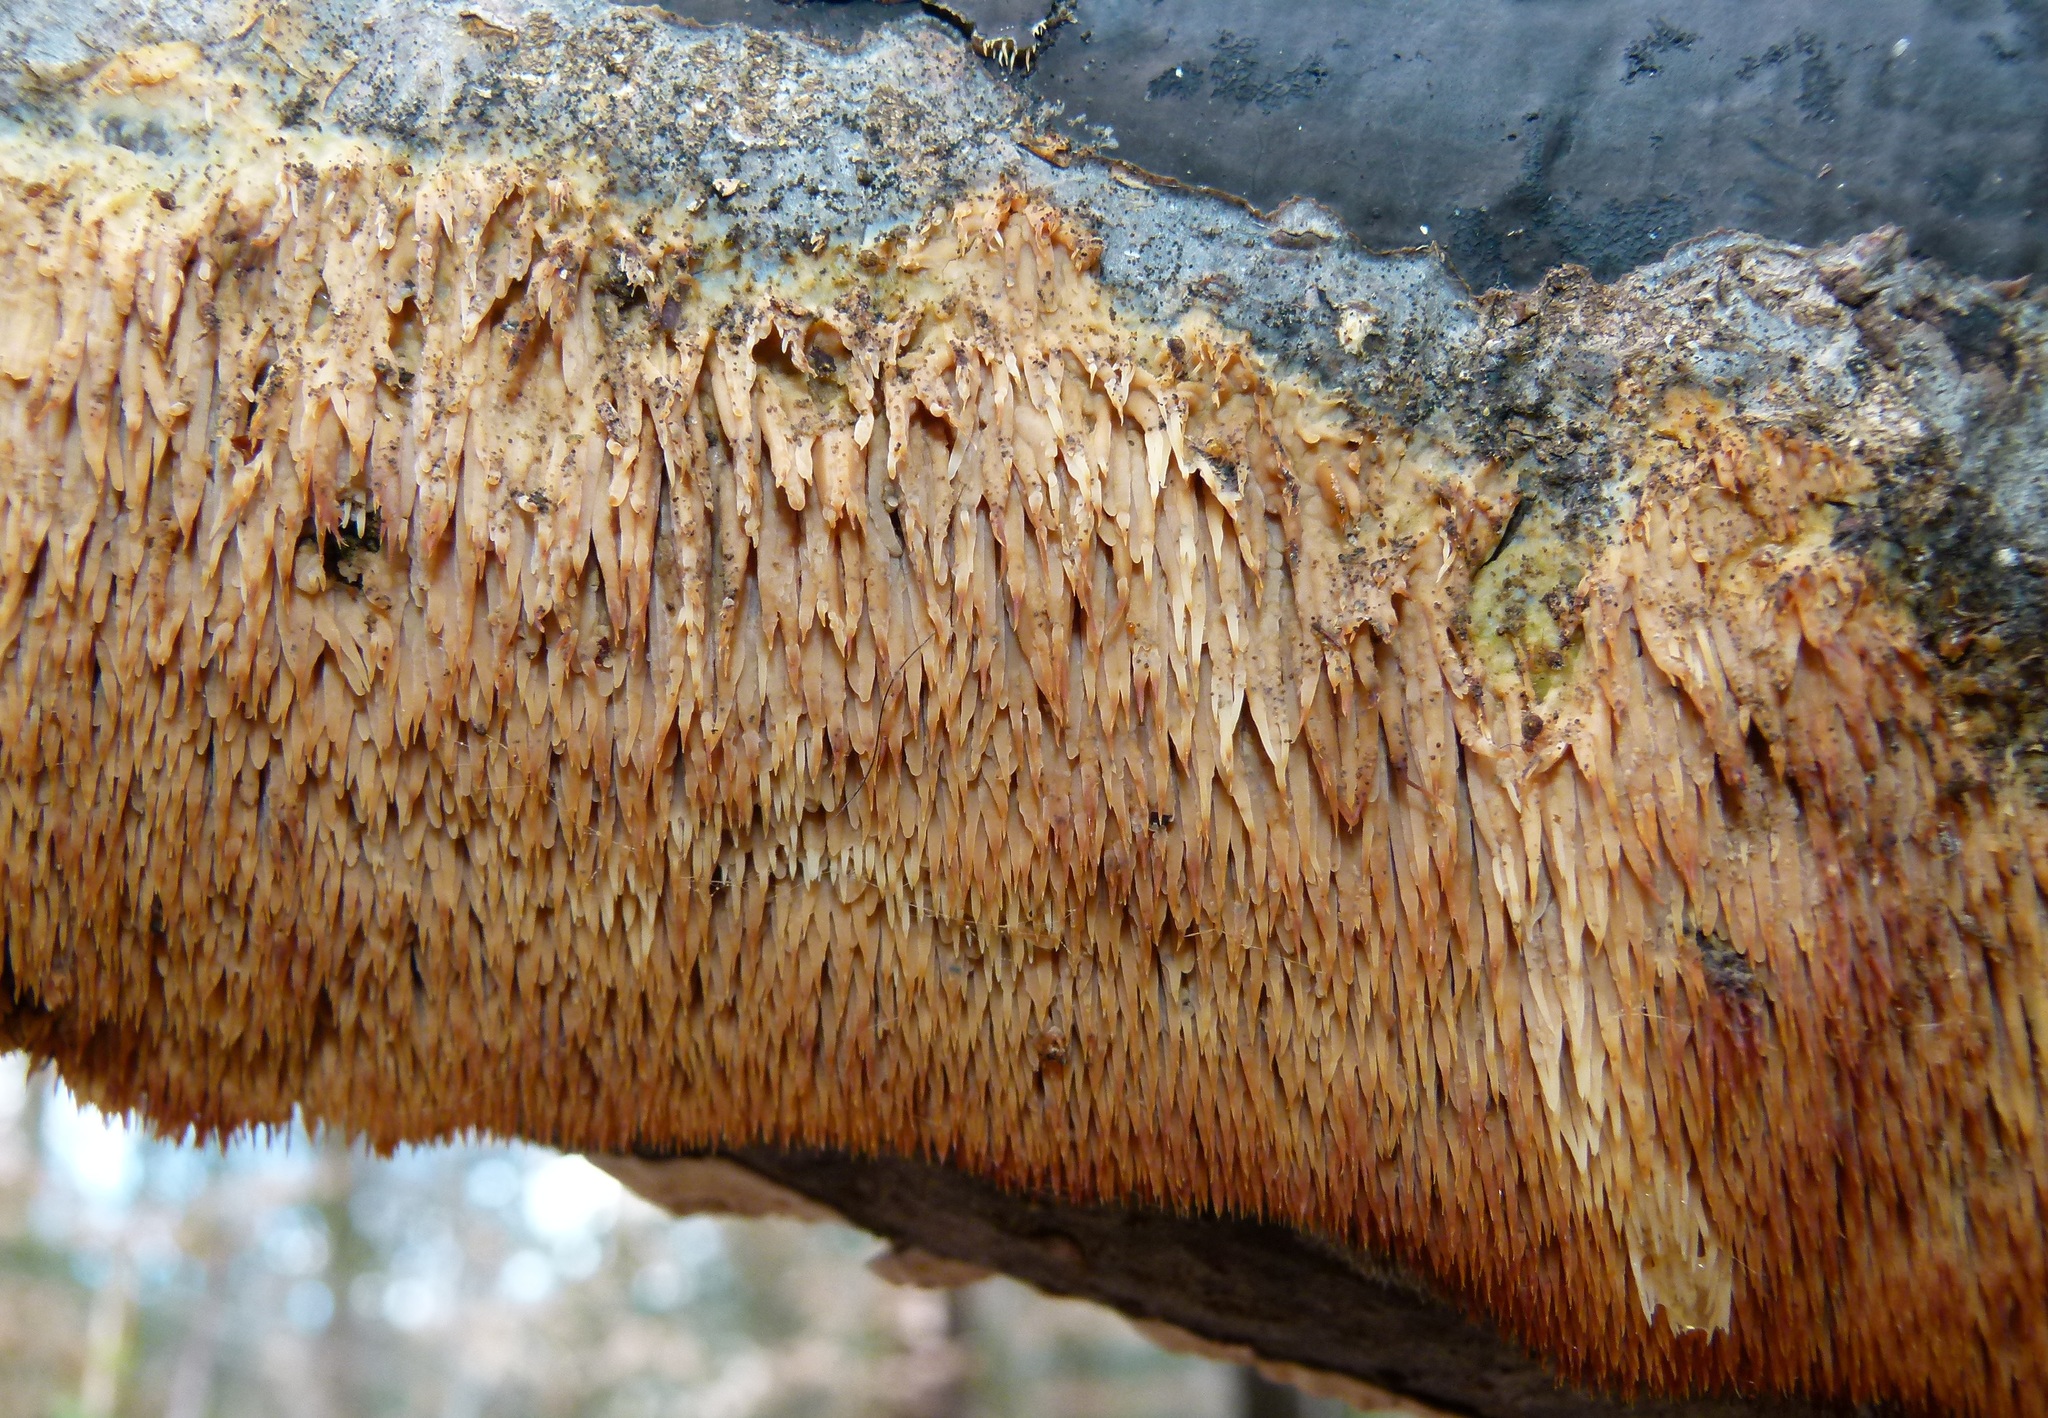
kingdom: Fungi
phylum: Basidiomycota
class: Agaricomycetes
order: Agaricales
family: Radulomycetaceae
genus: Radulomyces
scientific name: Radulomyces copelandii
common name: Asian beauty
